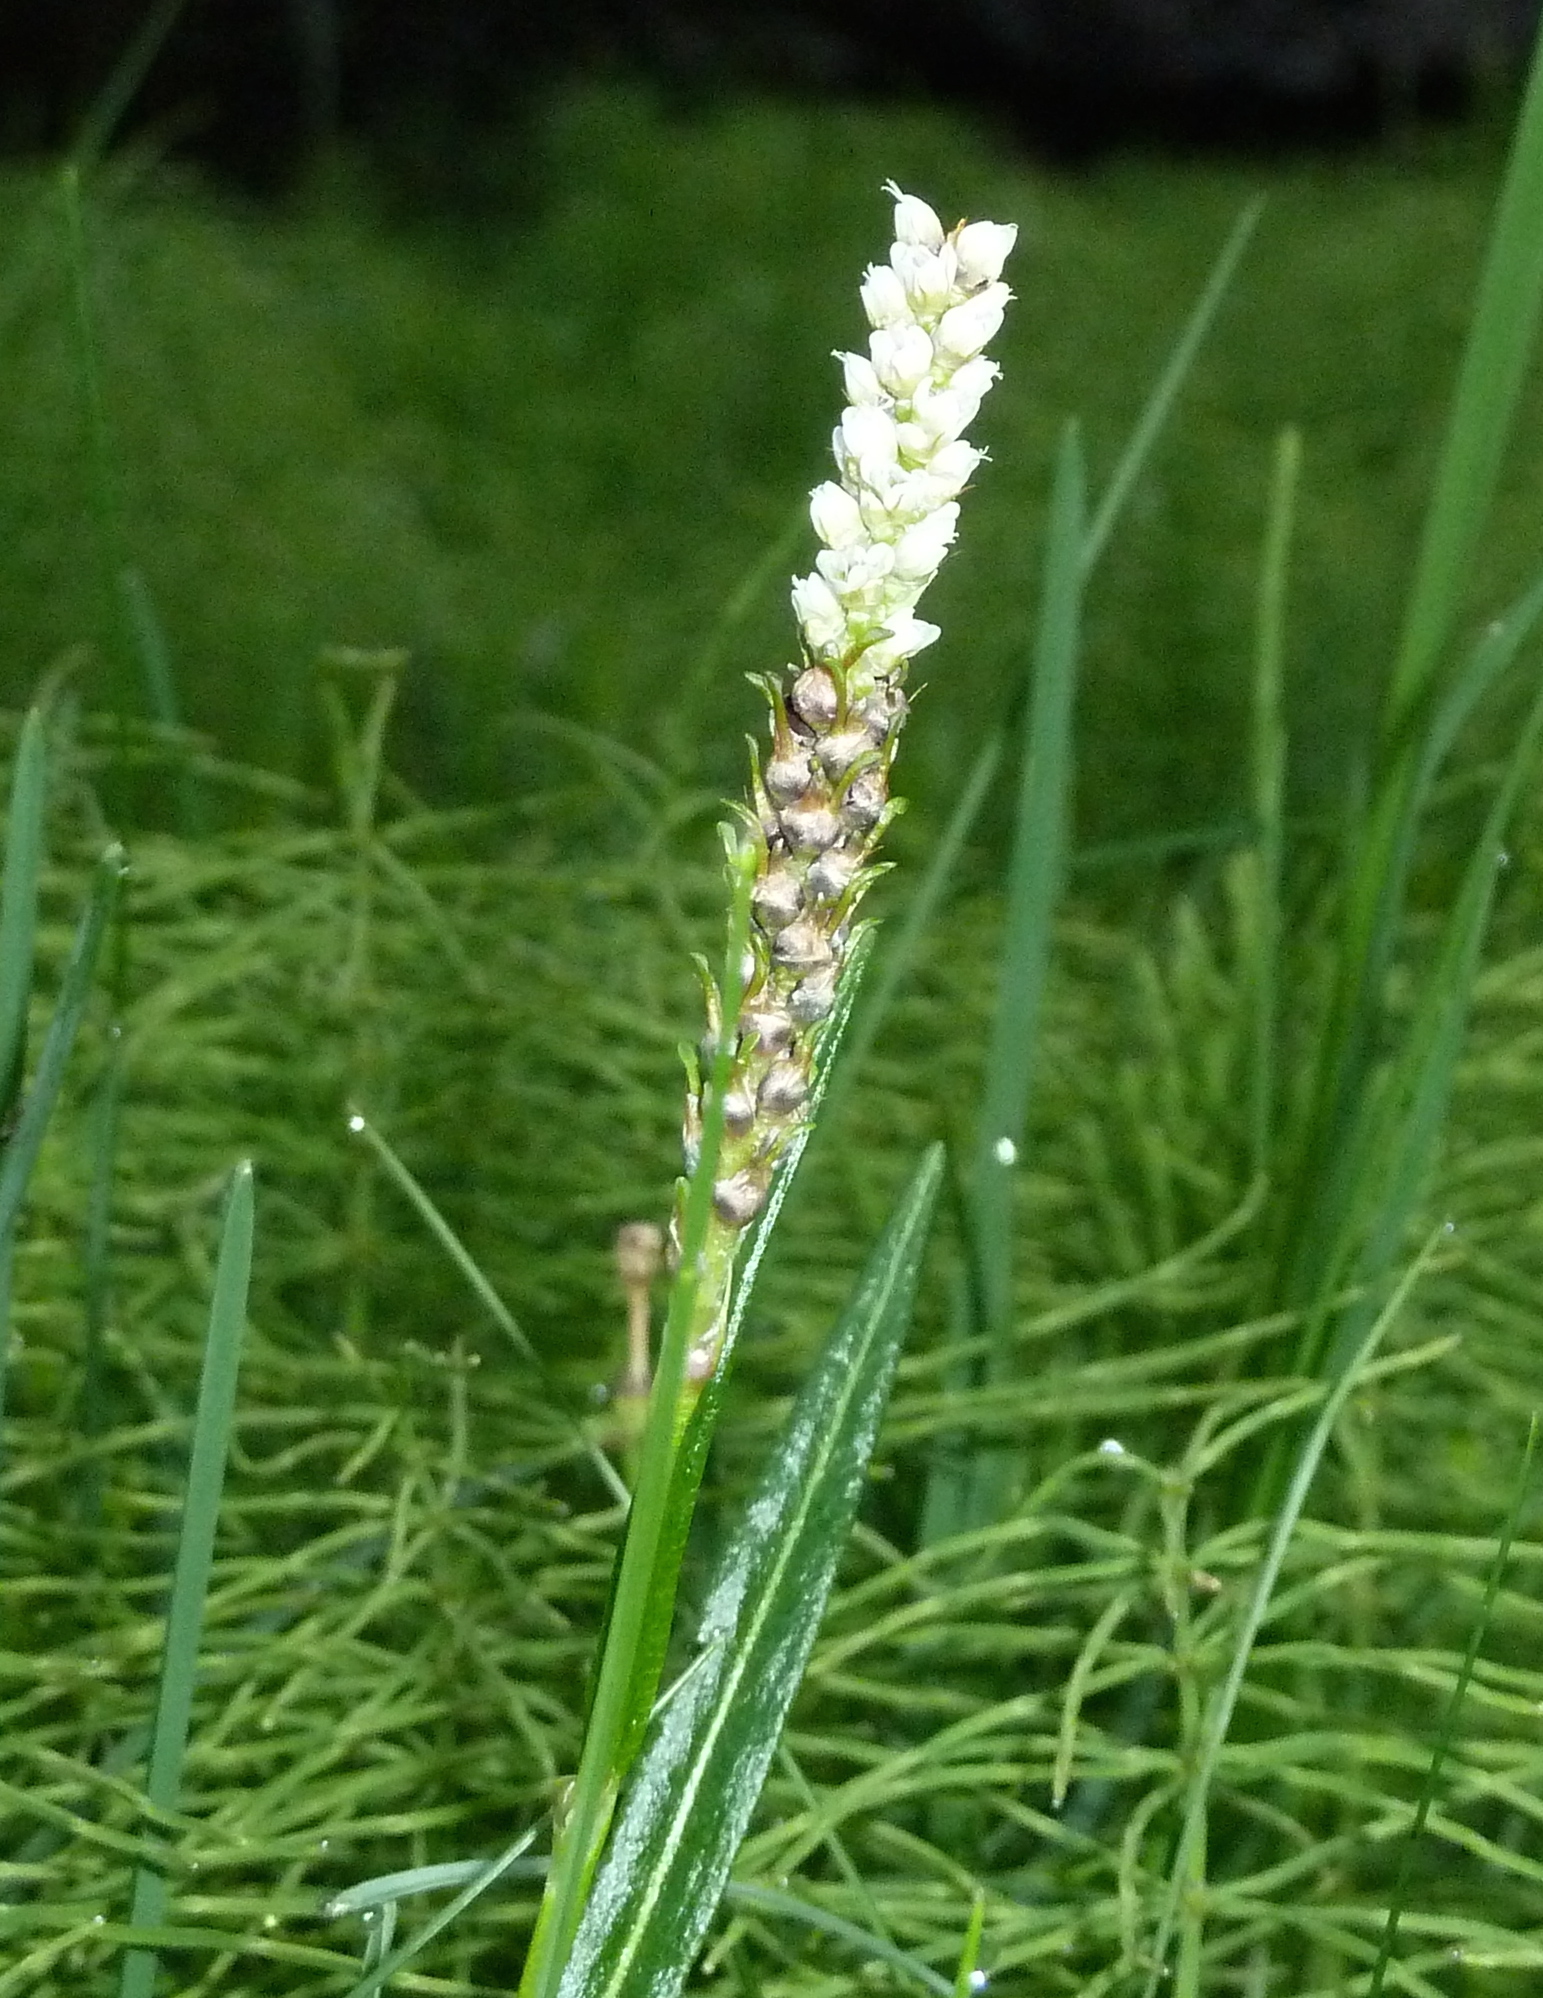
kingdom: Plantae
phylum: Tracheophyta
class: Magnoliopsida
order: Caryophyllales
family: Polygonaceae
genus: Bistorta
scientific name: Bistorta vivipara
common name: Alpine bistort
